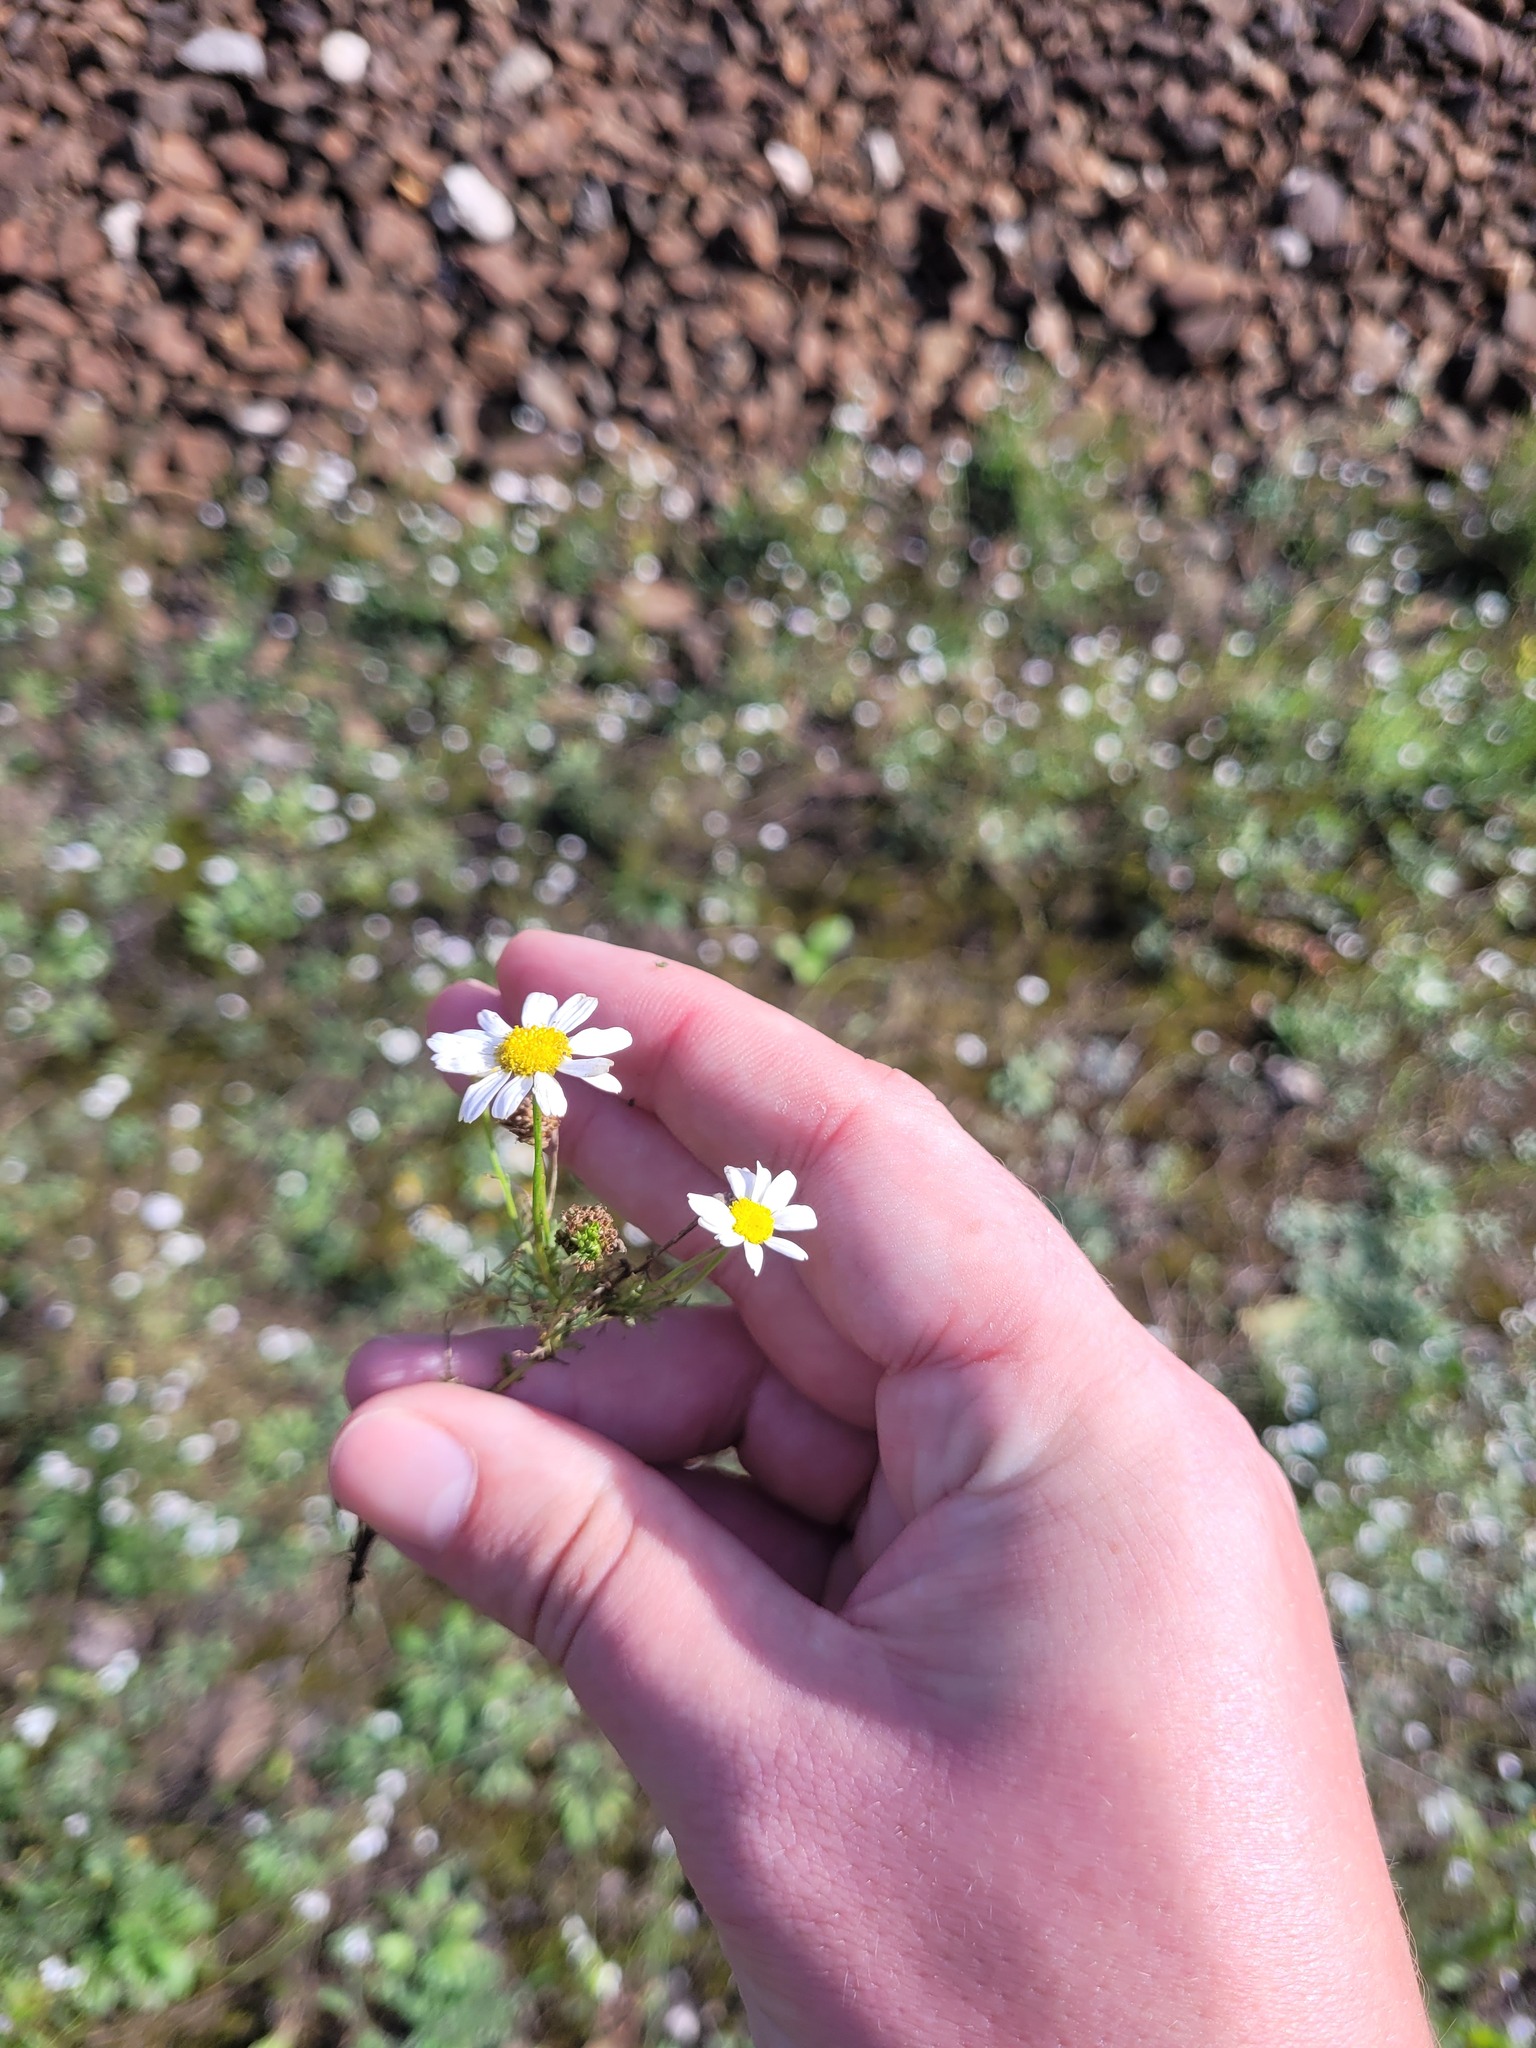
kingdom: Plantae
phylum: Tracheophyta
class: Magnoliopsida
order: Asterales
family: Asteraceae
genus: Tripleurospermum
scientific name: Tripleurospermum inodorum
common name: Scentless mayweed
